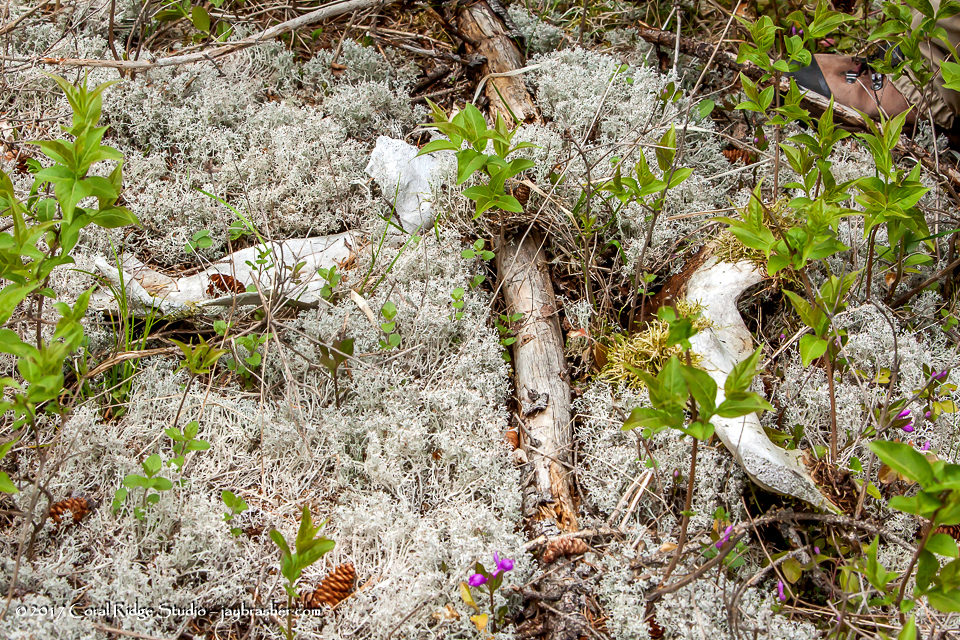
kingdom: Animalia
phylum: Chordata
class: Mammalia
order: Artiodactyla
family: Cervidae
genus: Alces
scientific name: Alces alces
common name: Moose
